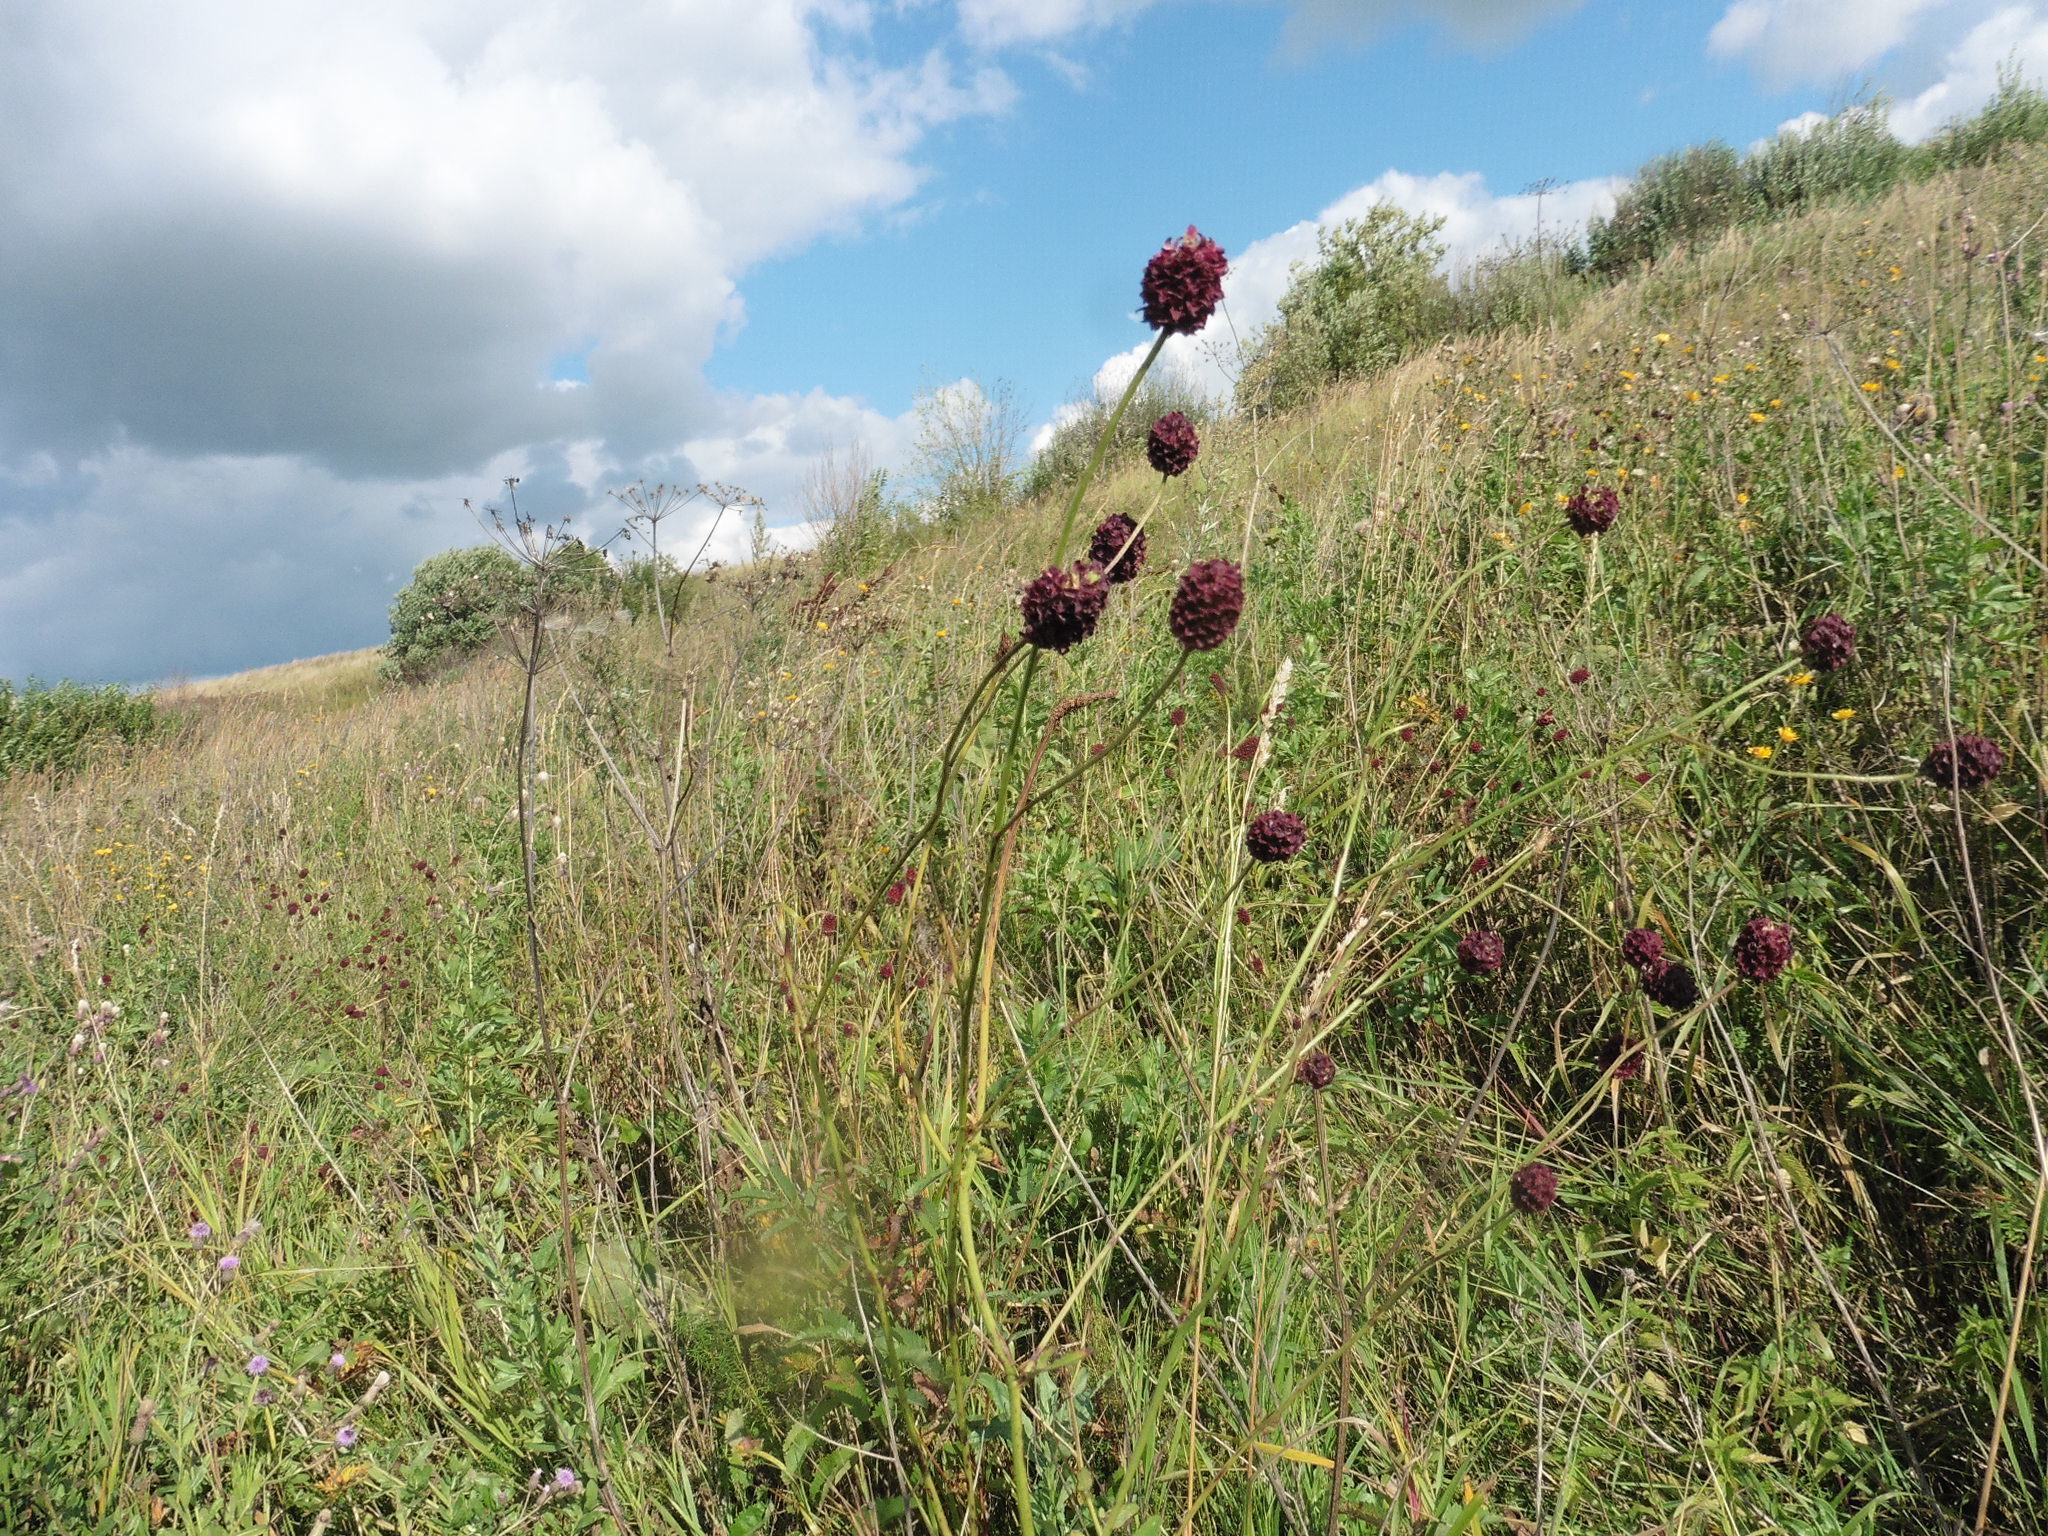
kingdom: Plantae
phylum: Tracheophyta
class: Magnoliopsida
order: Rosales
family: Rosaceae
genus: Sanguisorba
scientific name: Sanguisorba officinalis
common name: Great burnet
